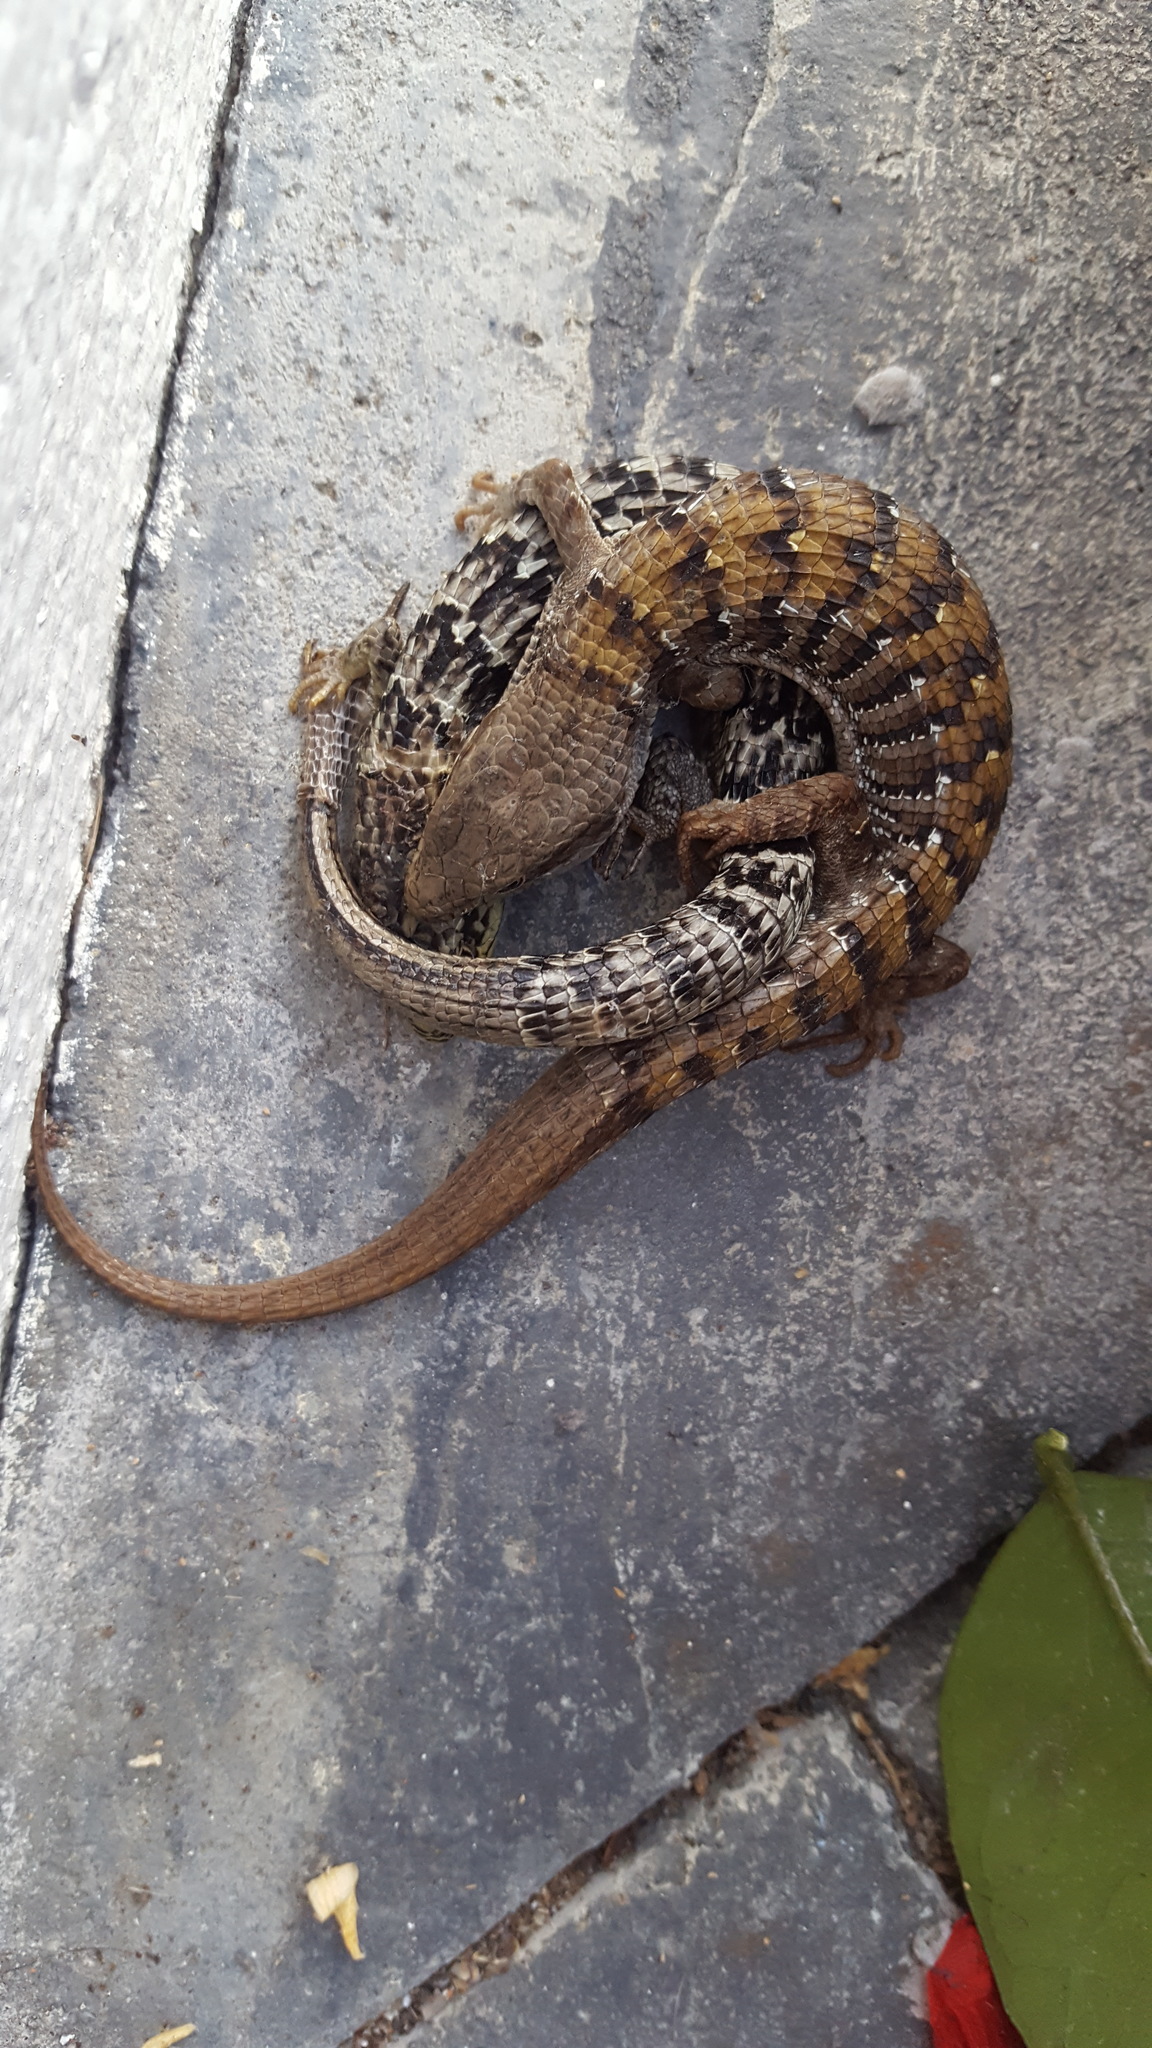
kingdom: Animalia
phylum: Chordata
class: Squamata
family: Anguidae
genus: Elgaria
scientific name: Elgaria multicarinata
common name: Southern alligator lizard
